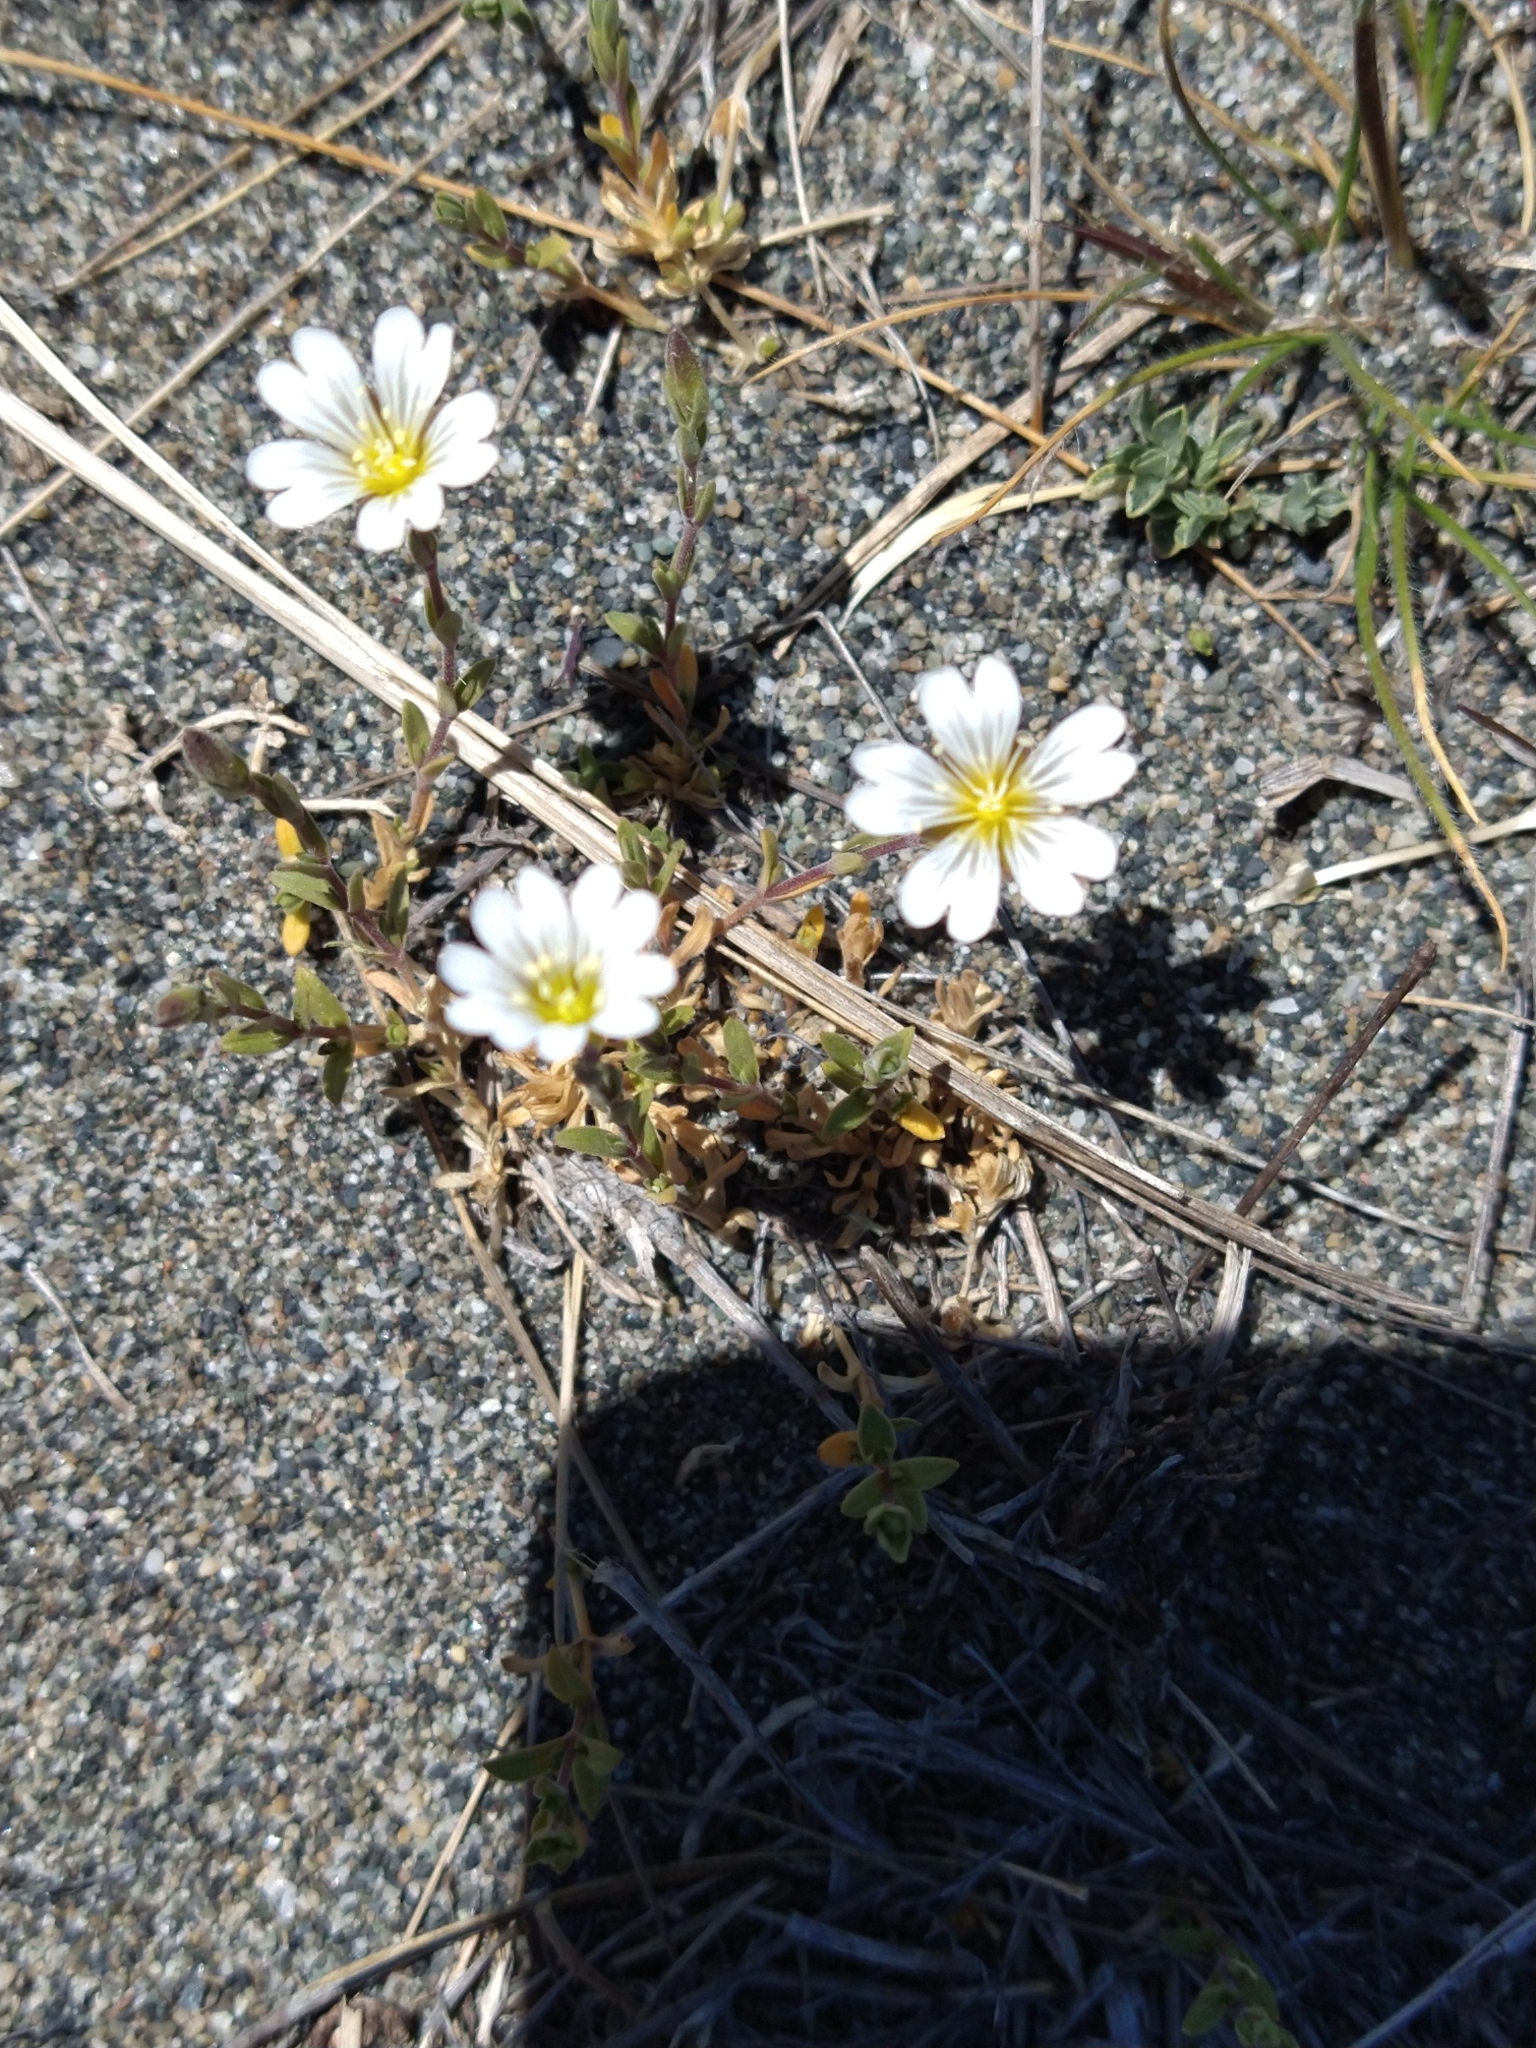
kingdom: Plantae
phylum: Tracheophyta
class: Magnoliopsida
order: Caryophyllales
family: Caryophyllaceae
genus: Cerastium
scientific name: Cerastium arvense
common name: Field mouse-ear
